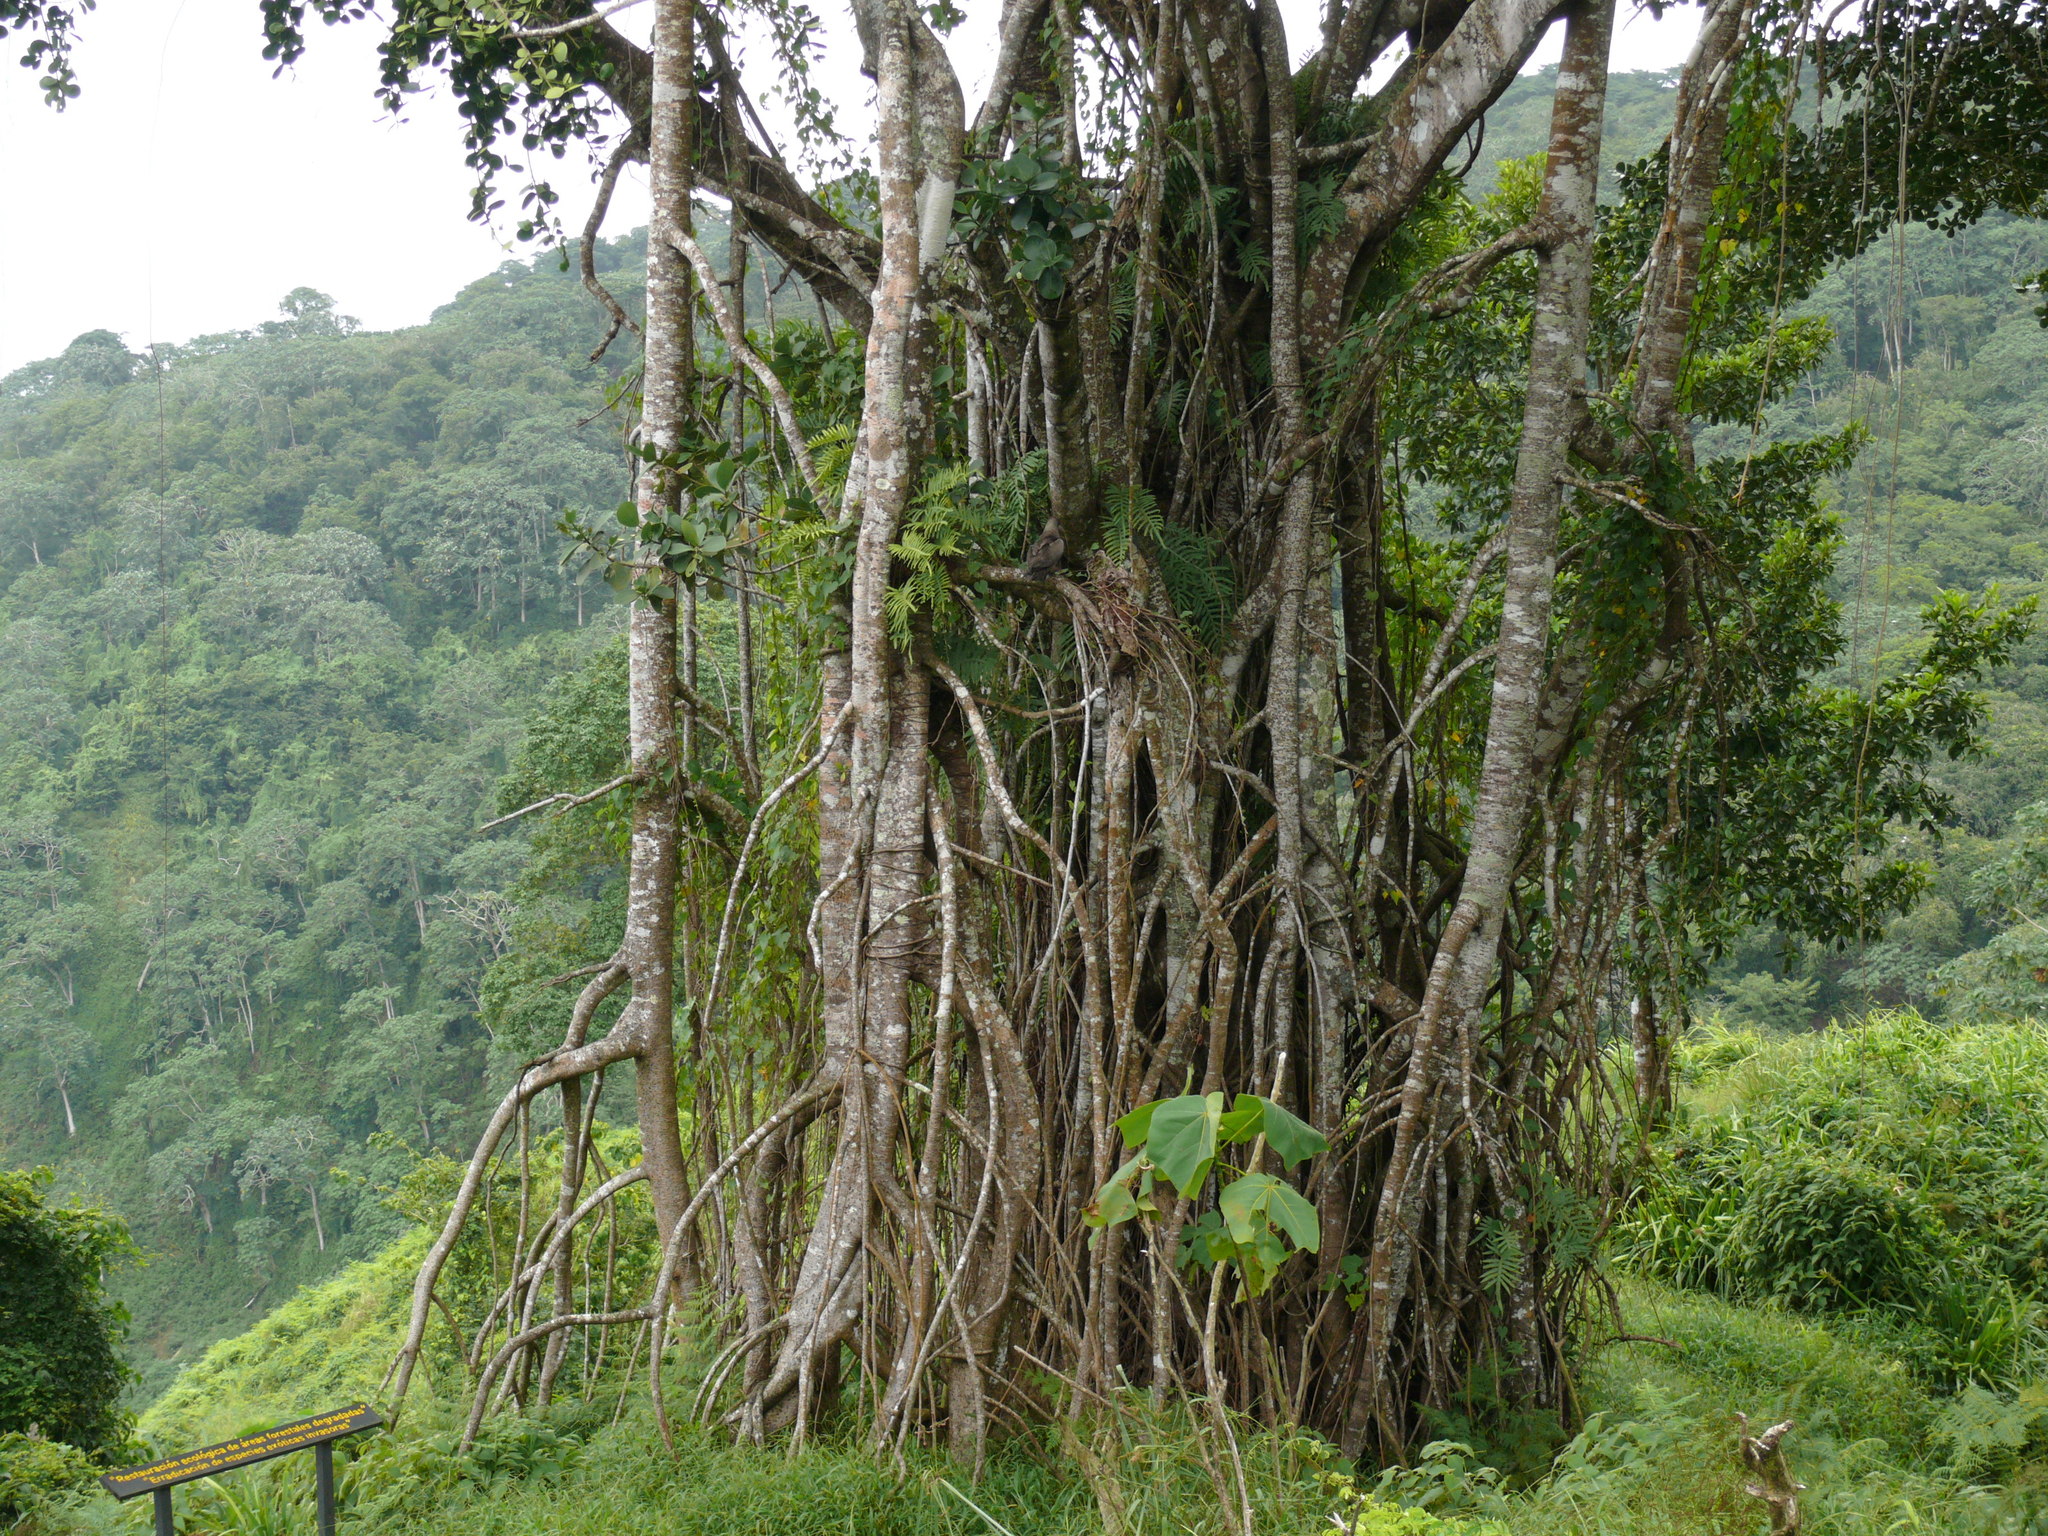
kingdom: Animalia
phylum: Arthropoda
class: Insecta
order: Lepidoptera
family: Crambidae
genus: Petrophila
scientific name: Petrophila fulicalis
